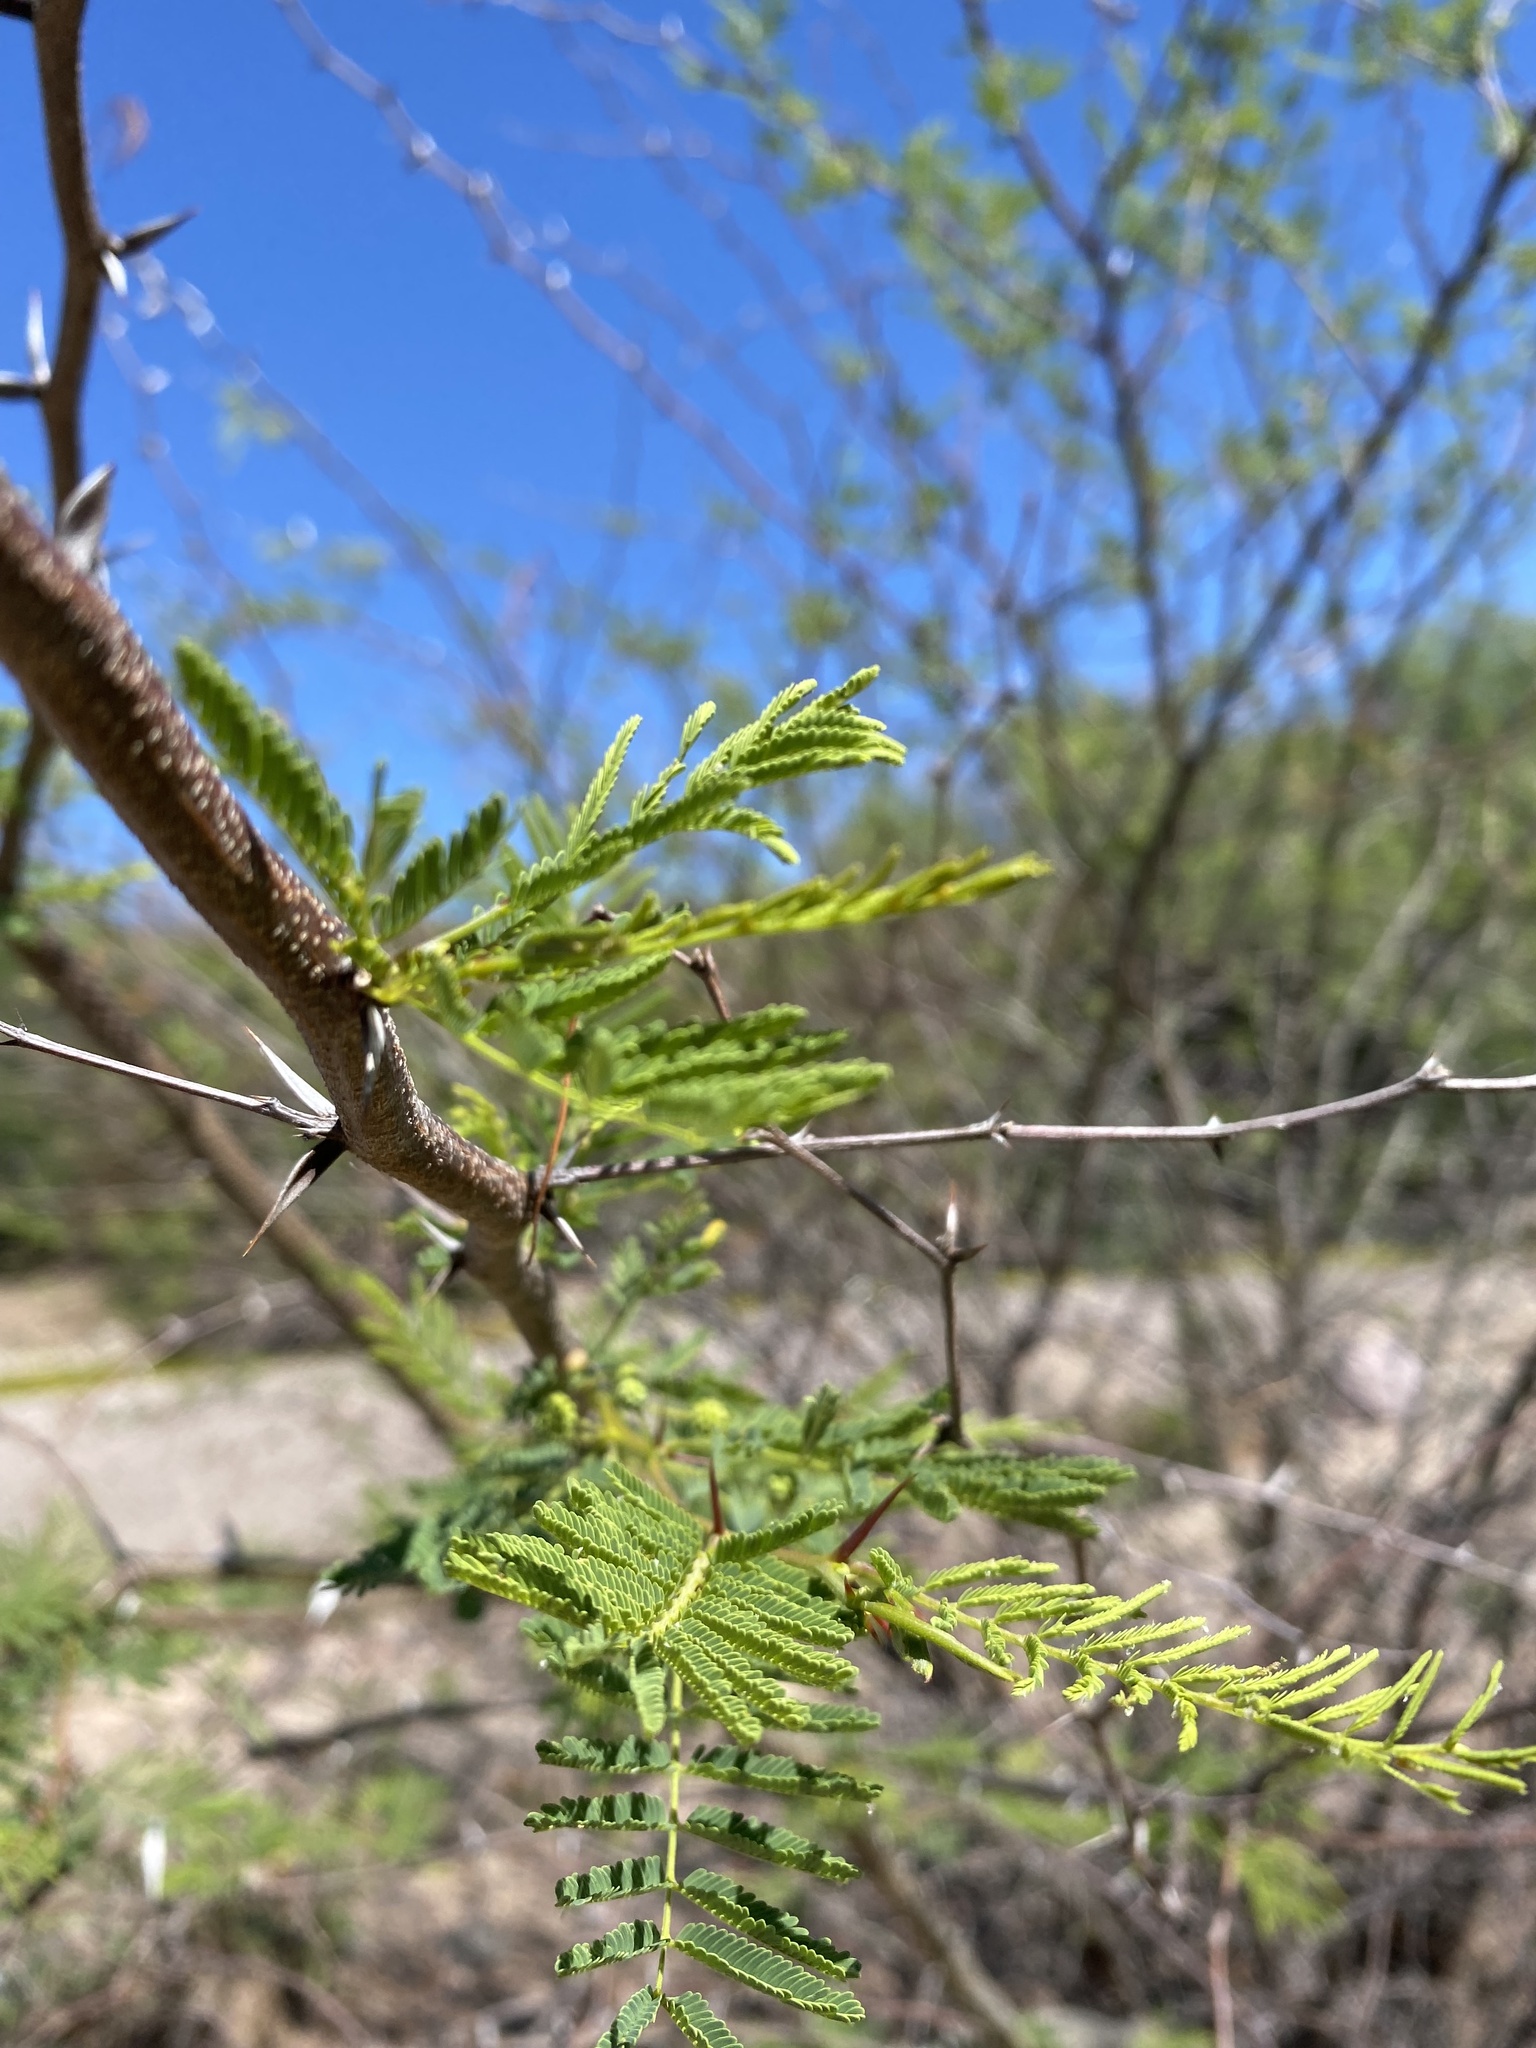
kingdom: Plantae
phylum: Tracheophyta
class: Magnoliopsida
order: Fabales
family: Fabaceae
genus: Vachellia
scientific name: Vachellia campechiana
